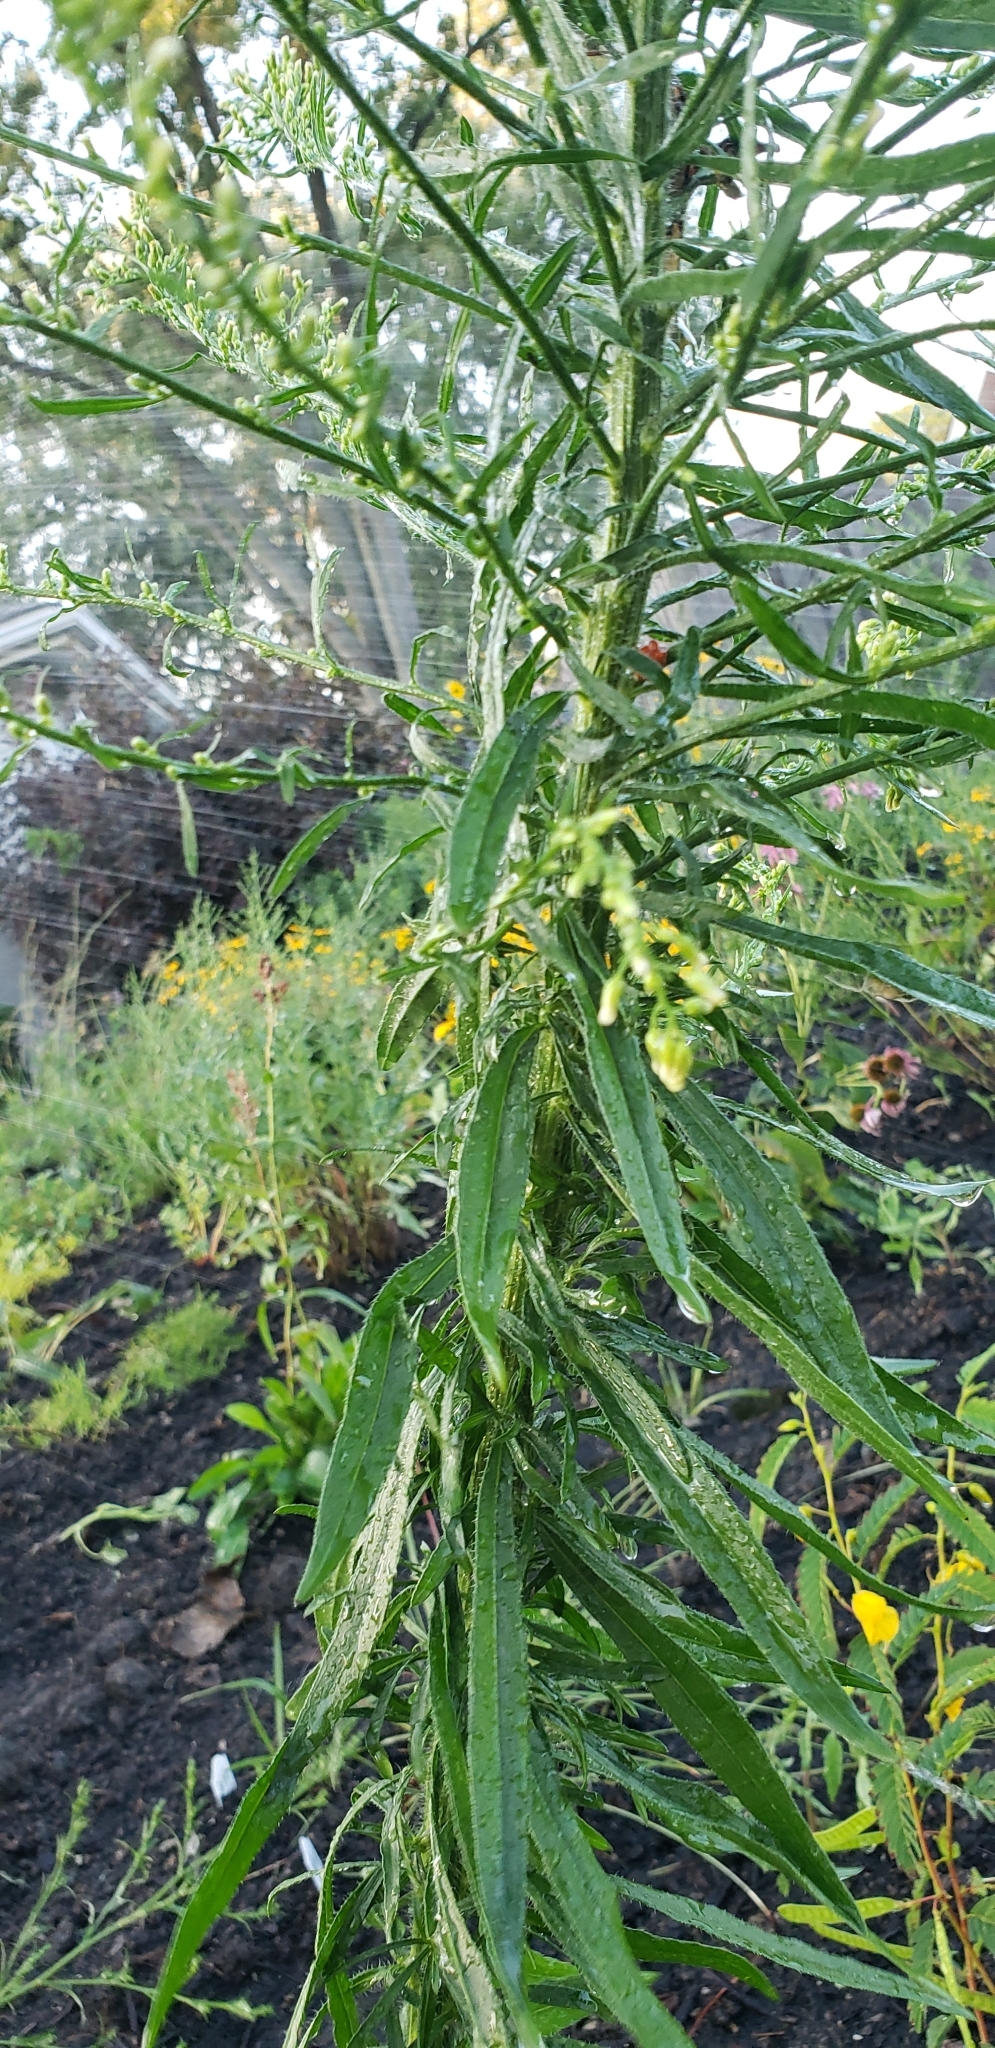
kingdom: Plantae
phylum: Tracheophyta
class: Magnoliopsida
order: Asterales
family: Asteraceae
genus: Erigeron
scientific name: Erigeron canadensis
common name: Canadian fleabane
